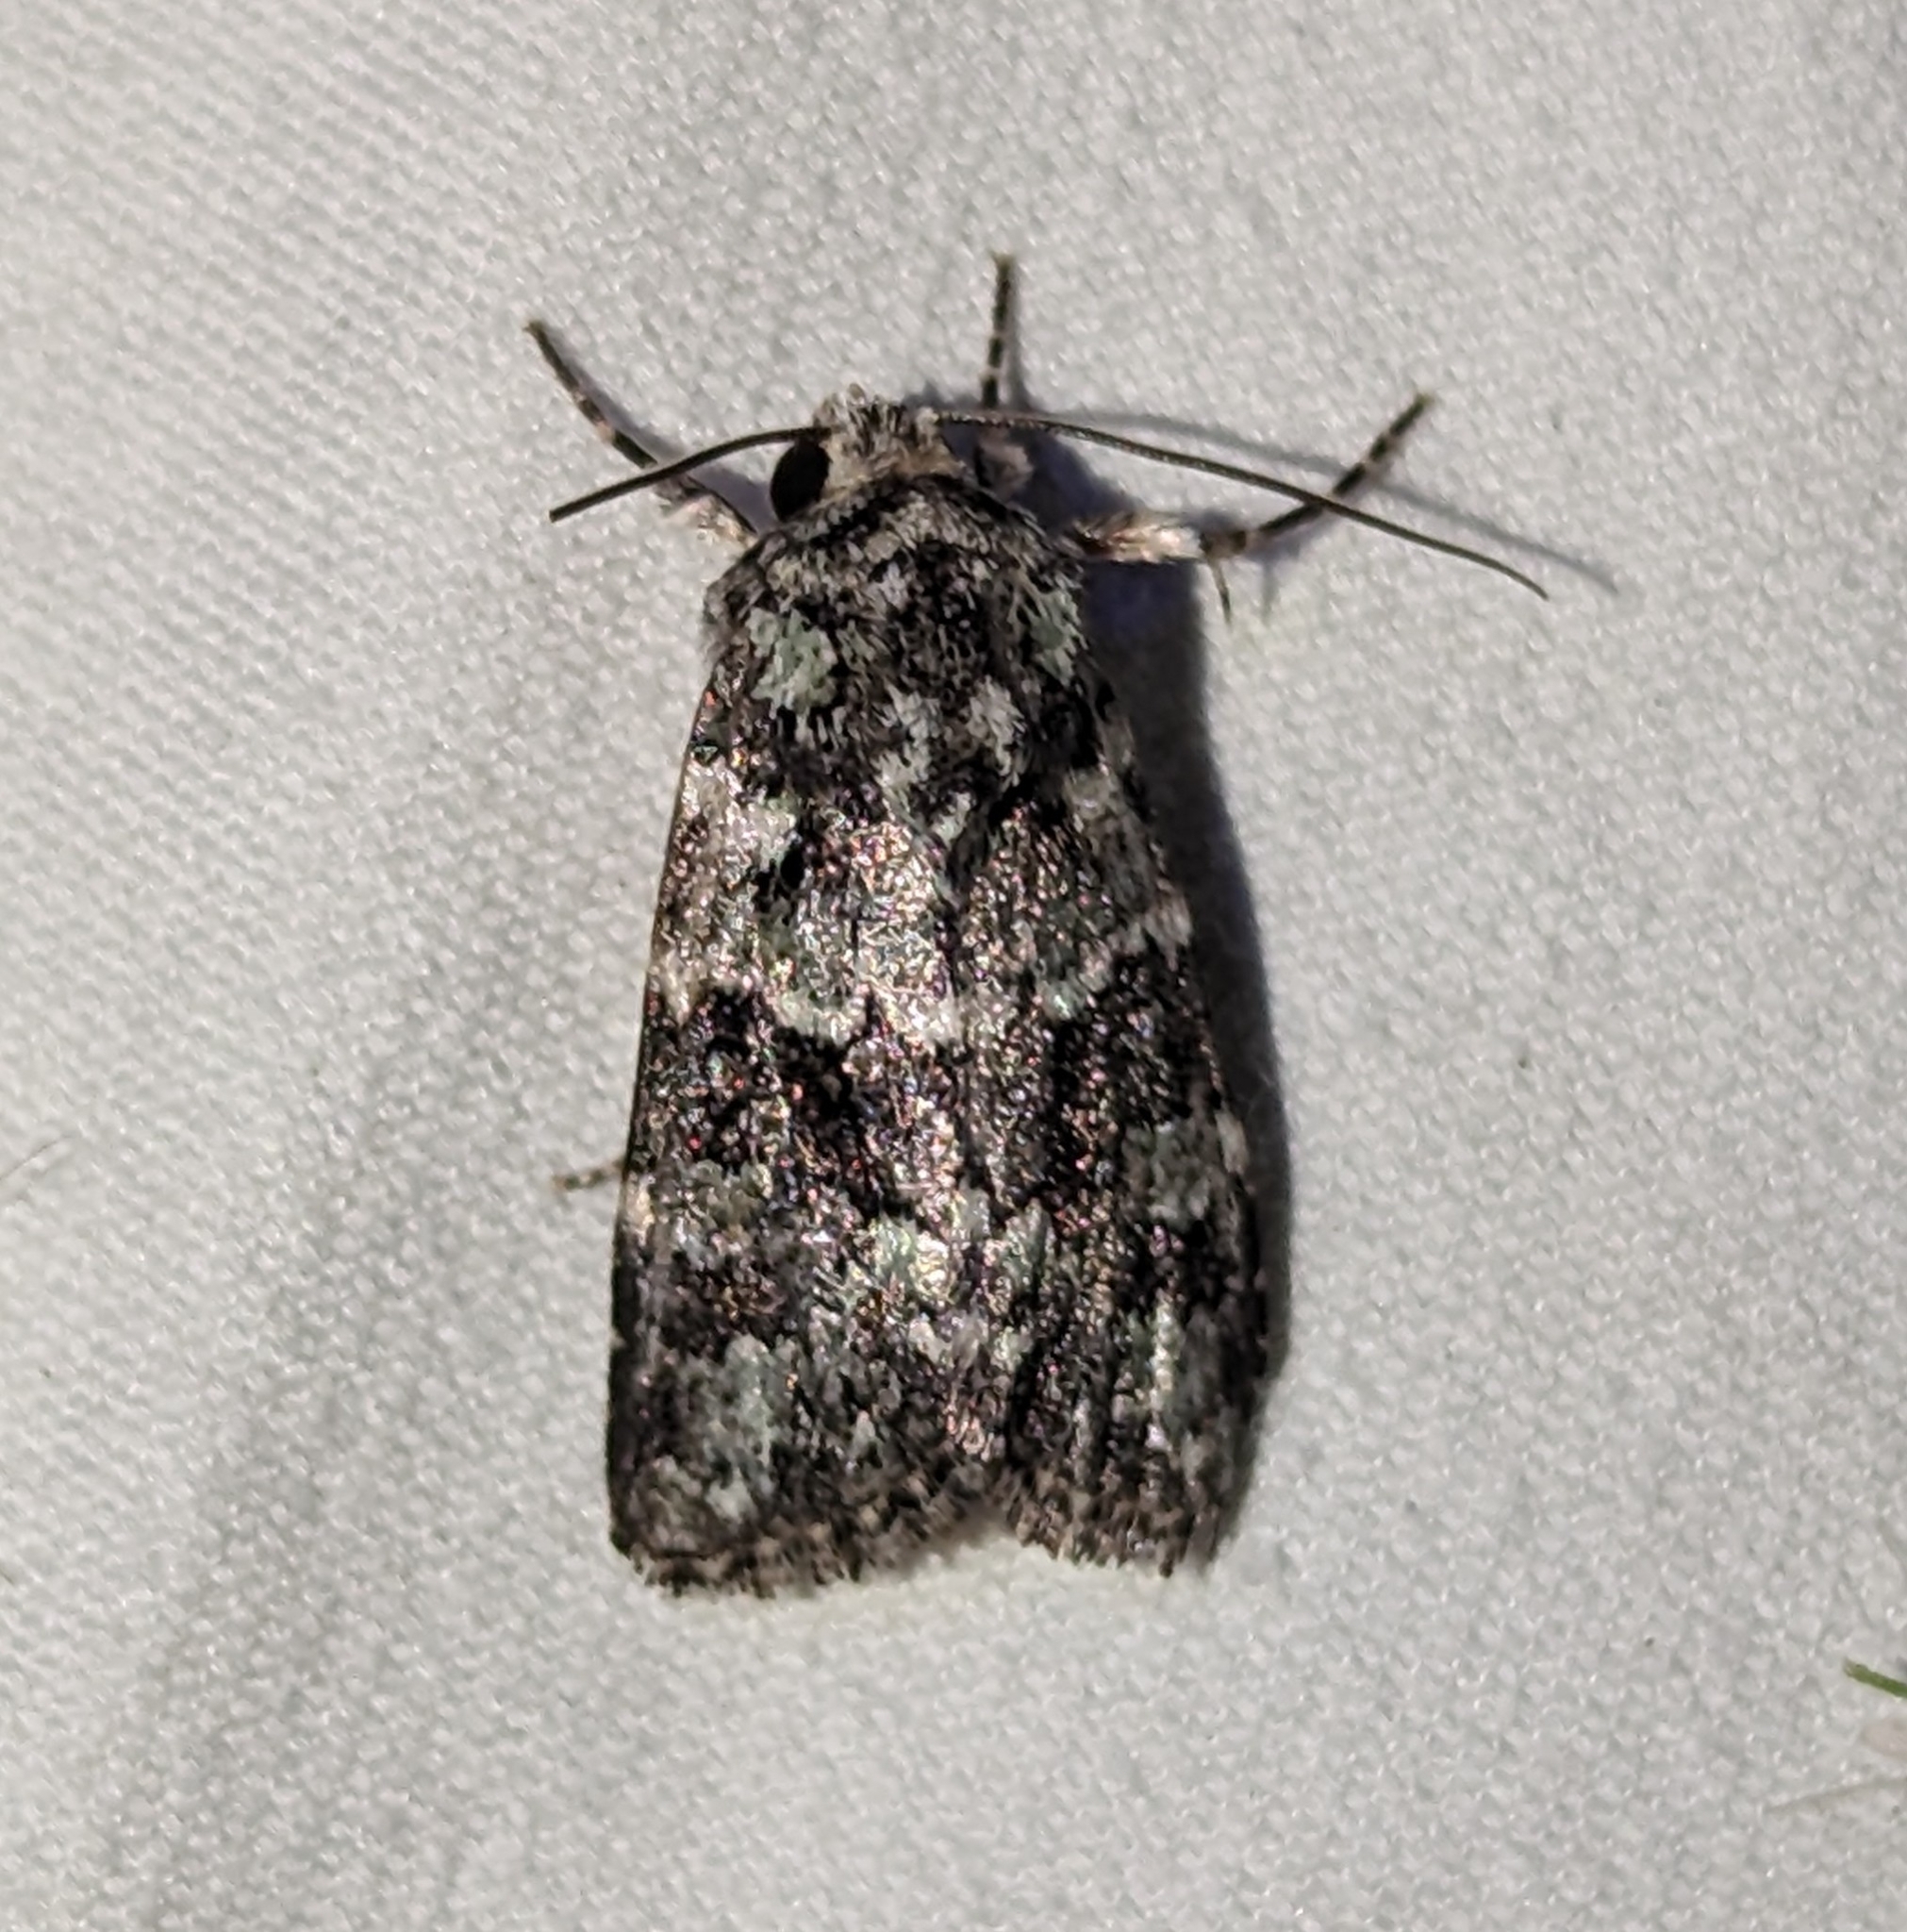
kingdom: Animalia
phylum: Arthropoda
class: Insecta
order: Lepidoptera
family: Noctuidae
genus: Lacinipolia
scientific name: Lacinipolia strigicollis
